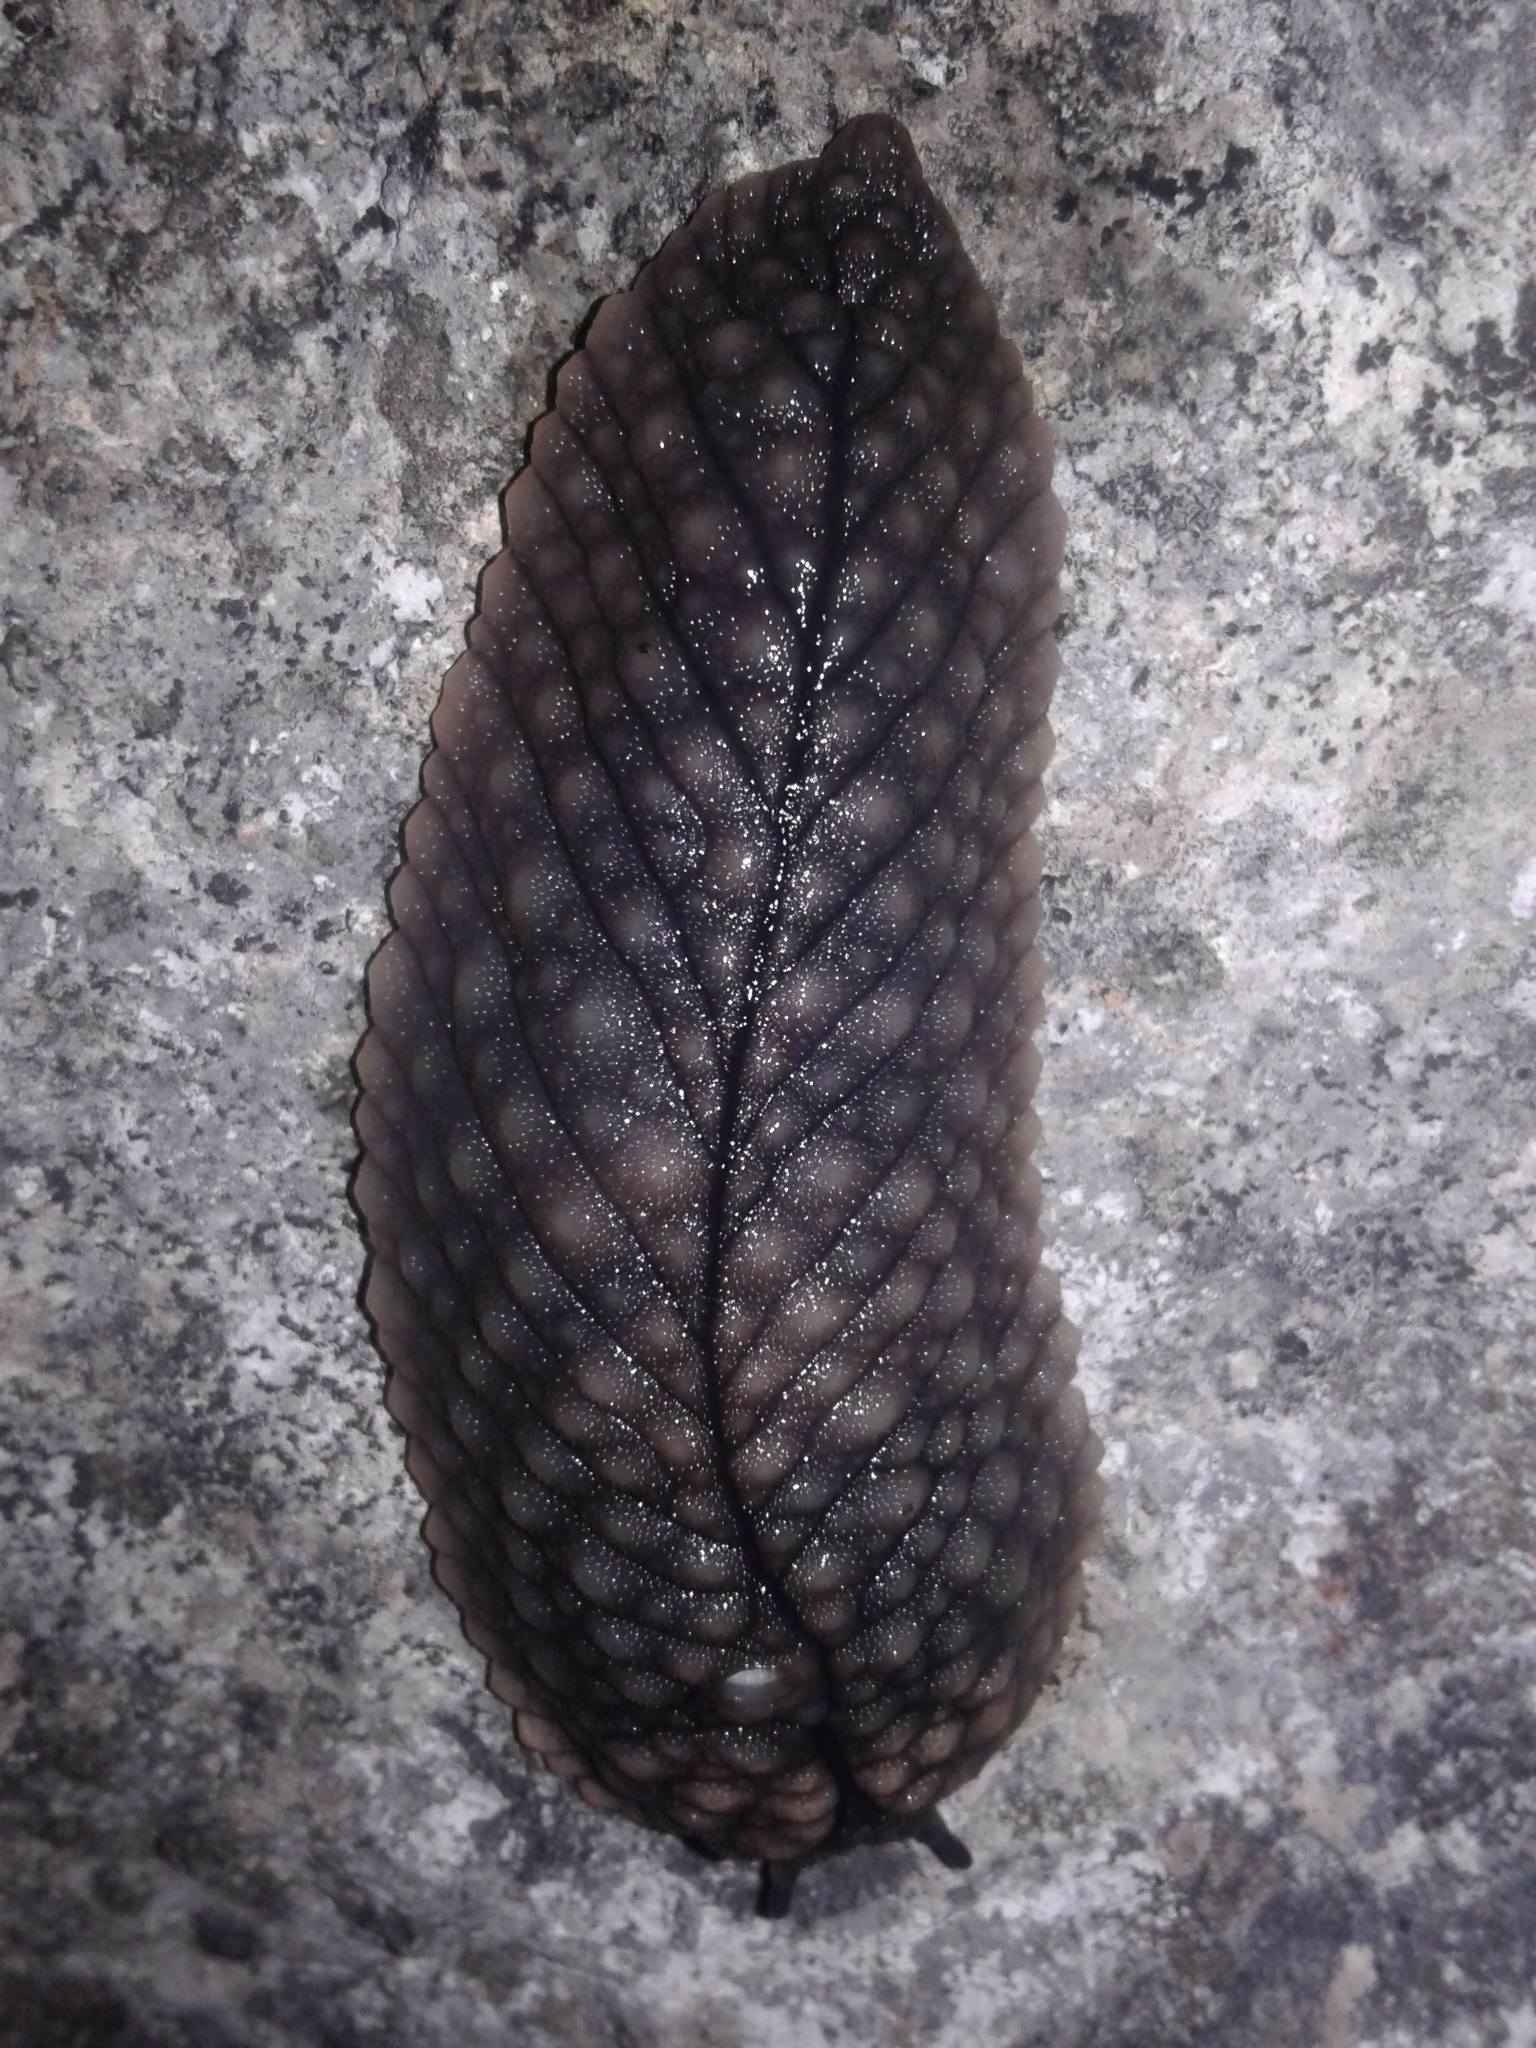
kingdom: Animalia
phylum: Mollusca
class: Gastropoda
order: Stylommatophora
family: Athoracophoridae
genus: Pseudaneitea
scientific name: Pseudaneitea gigantea
